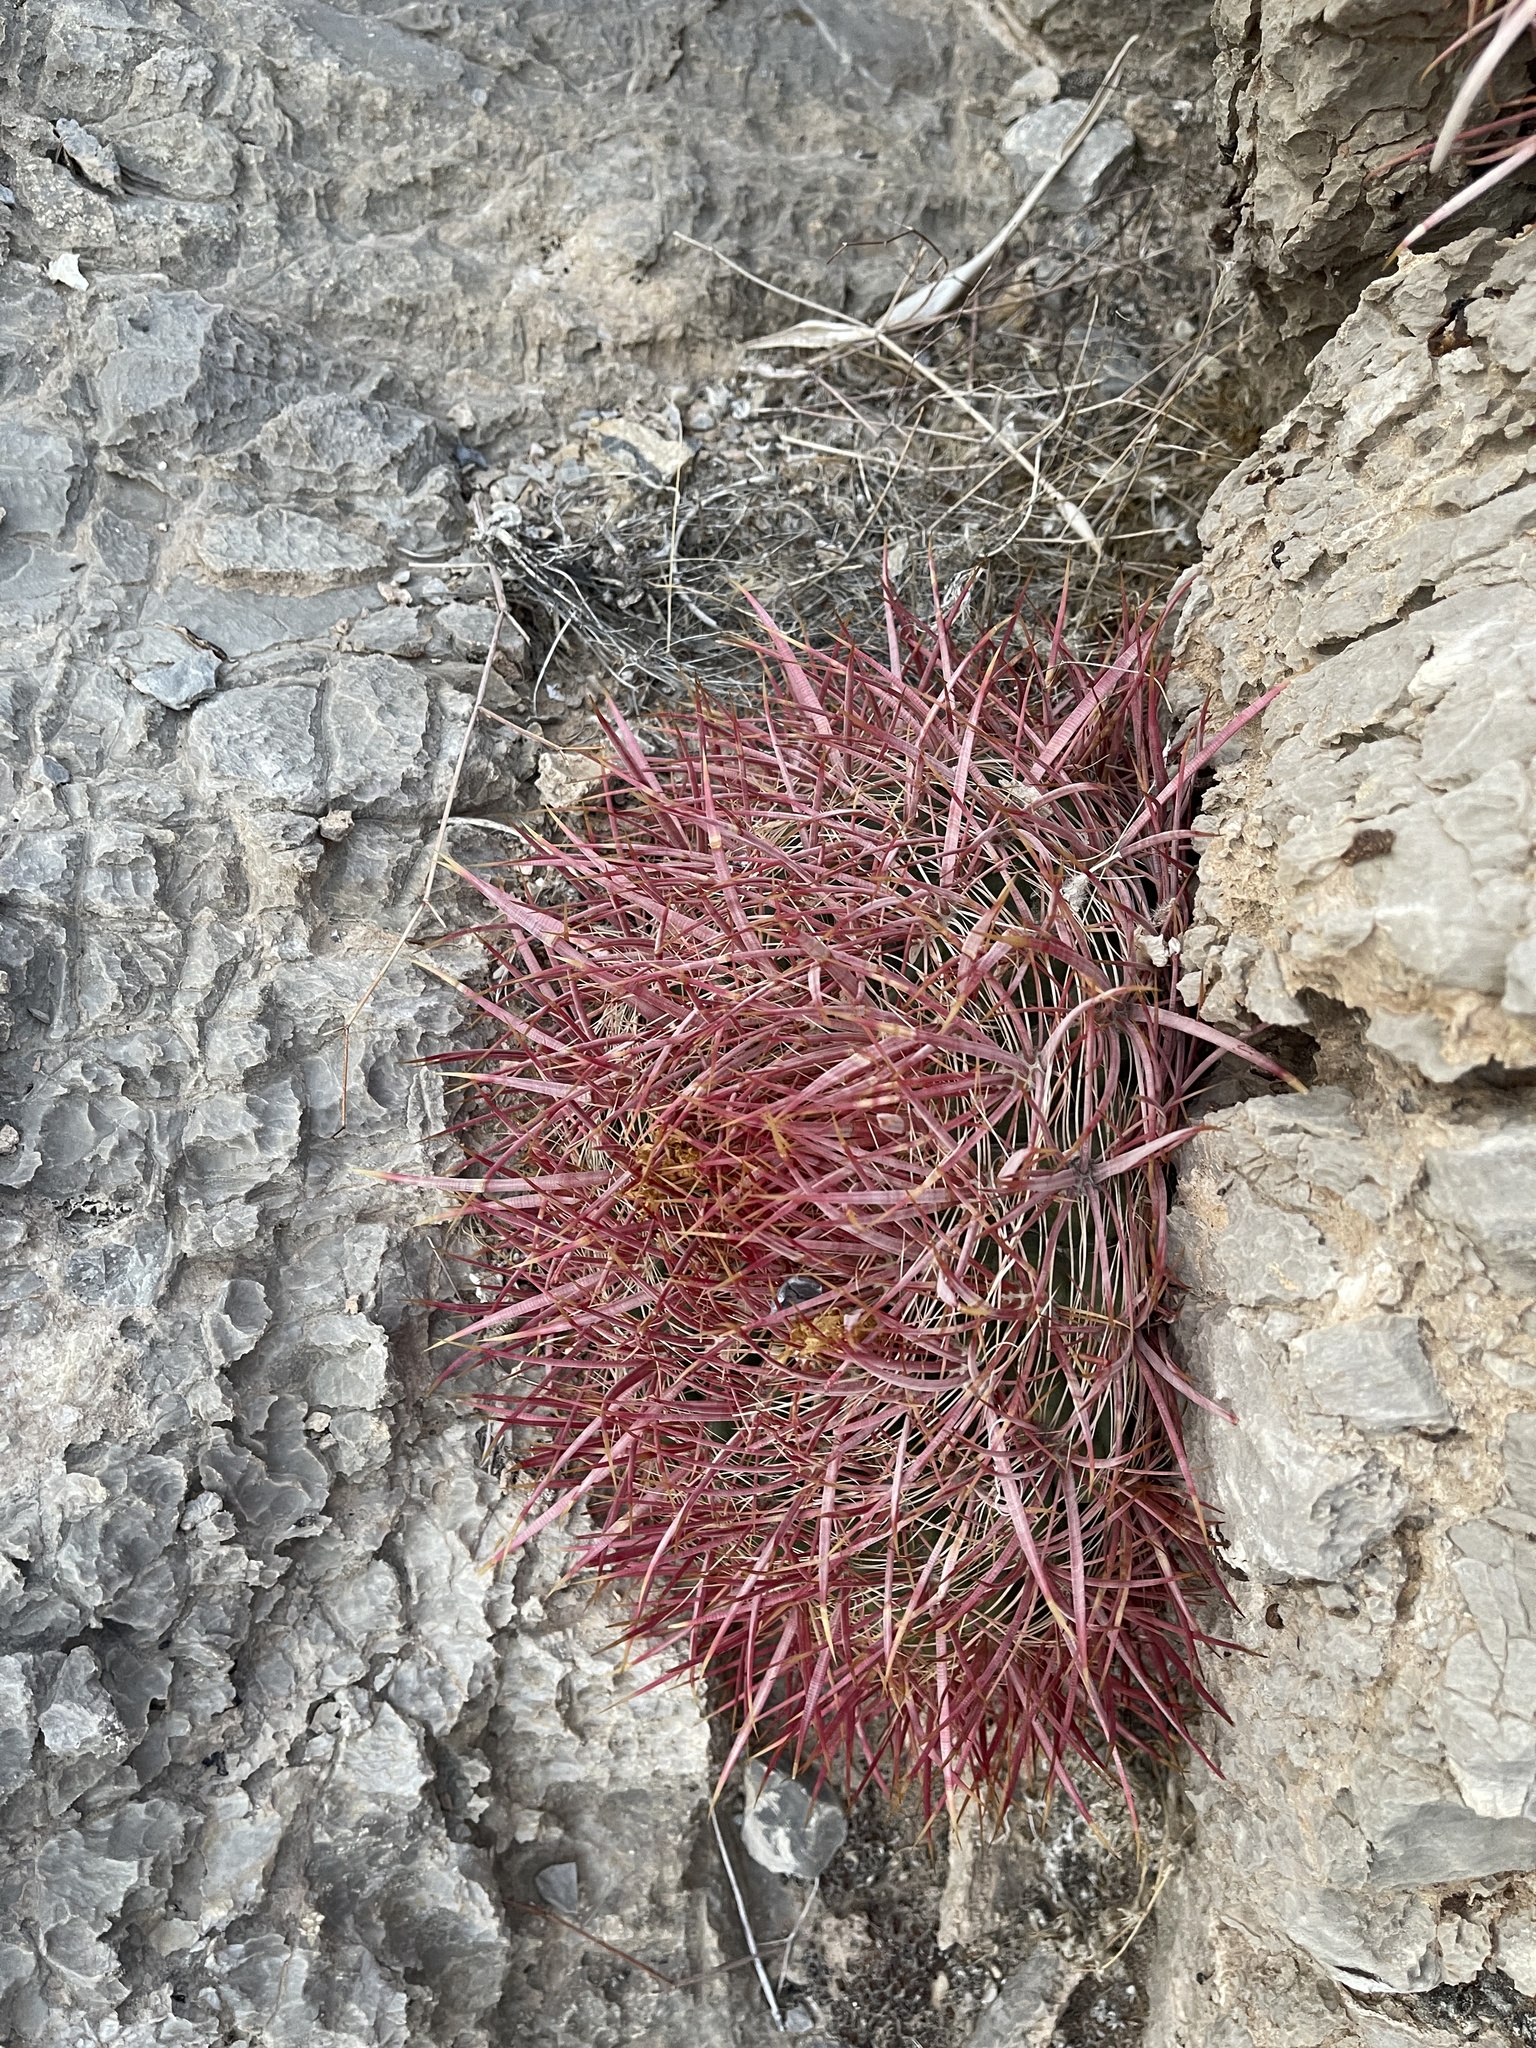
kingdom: Plantae
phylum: Tracheophyta
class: Magnoliopsida
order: Caryophyllales
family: Cactaceae
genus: Ferocactus
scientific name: Ferocactus cylindraceus
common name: California barrel cactus
